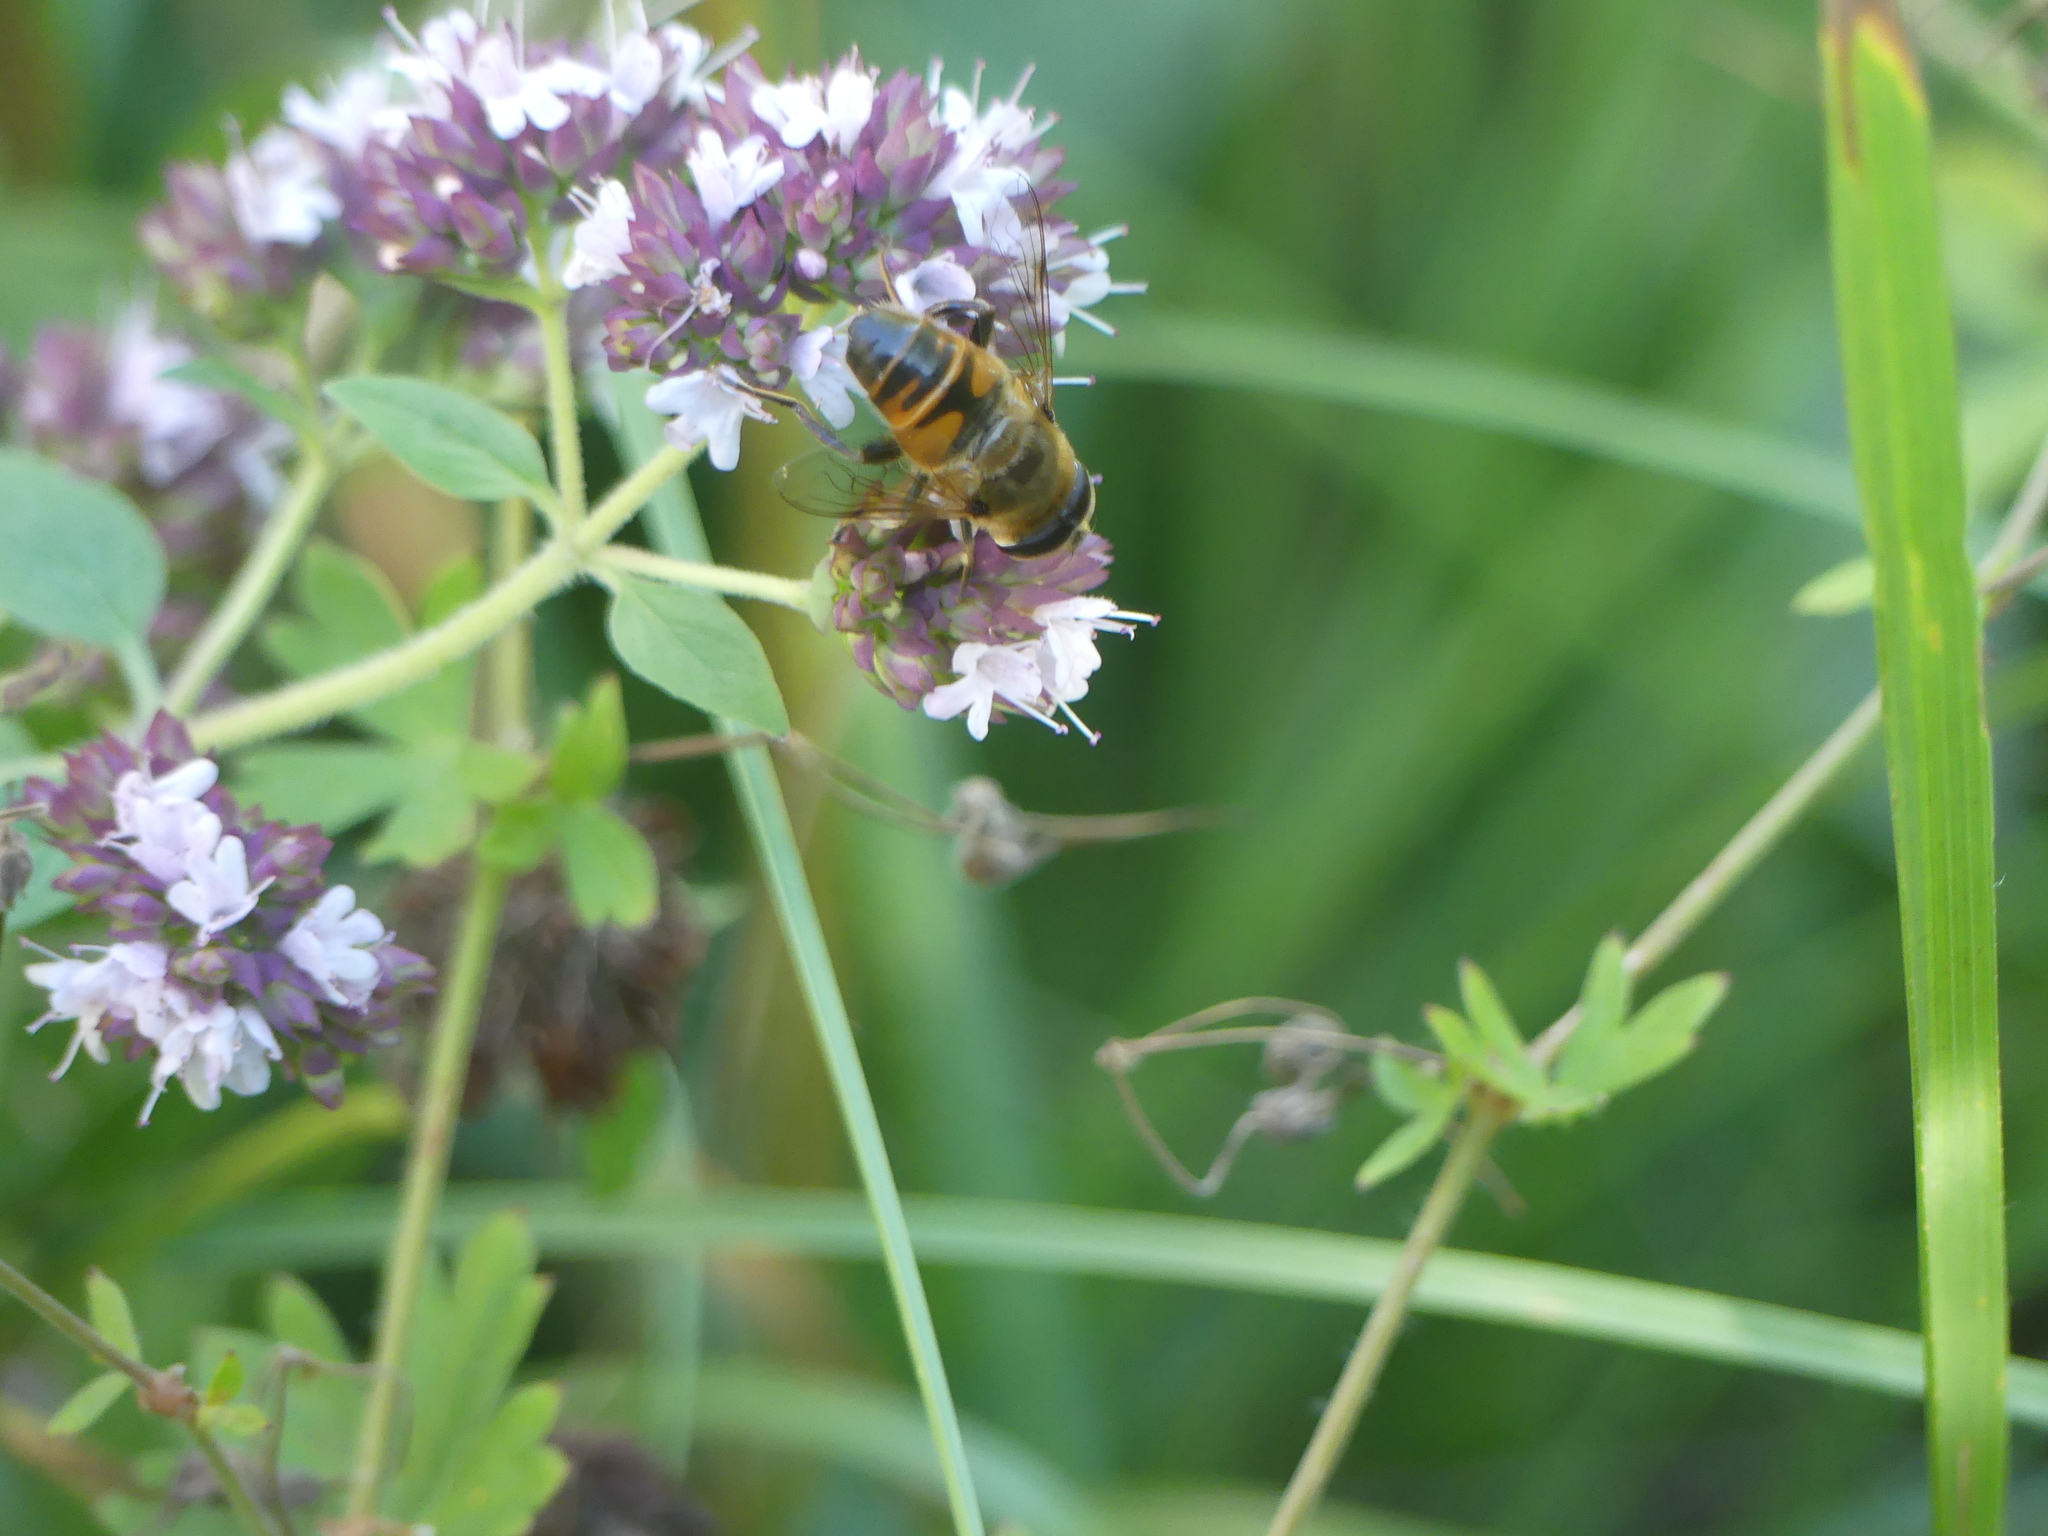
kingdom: Animalia
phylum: Arthropoda
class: Insecta
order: Diptera
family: Syrphidae
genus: Eristalis
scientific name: Eristalis tenax
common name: Drone fly
